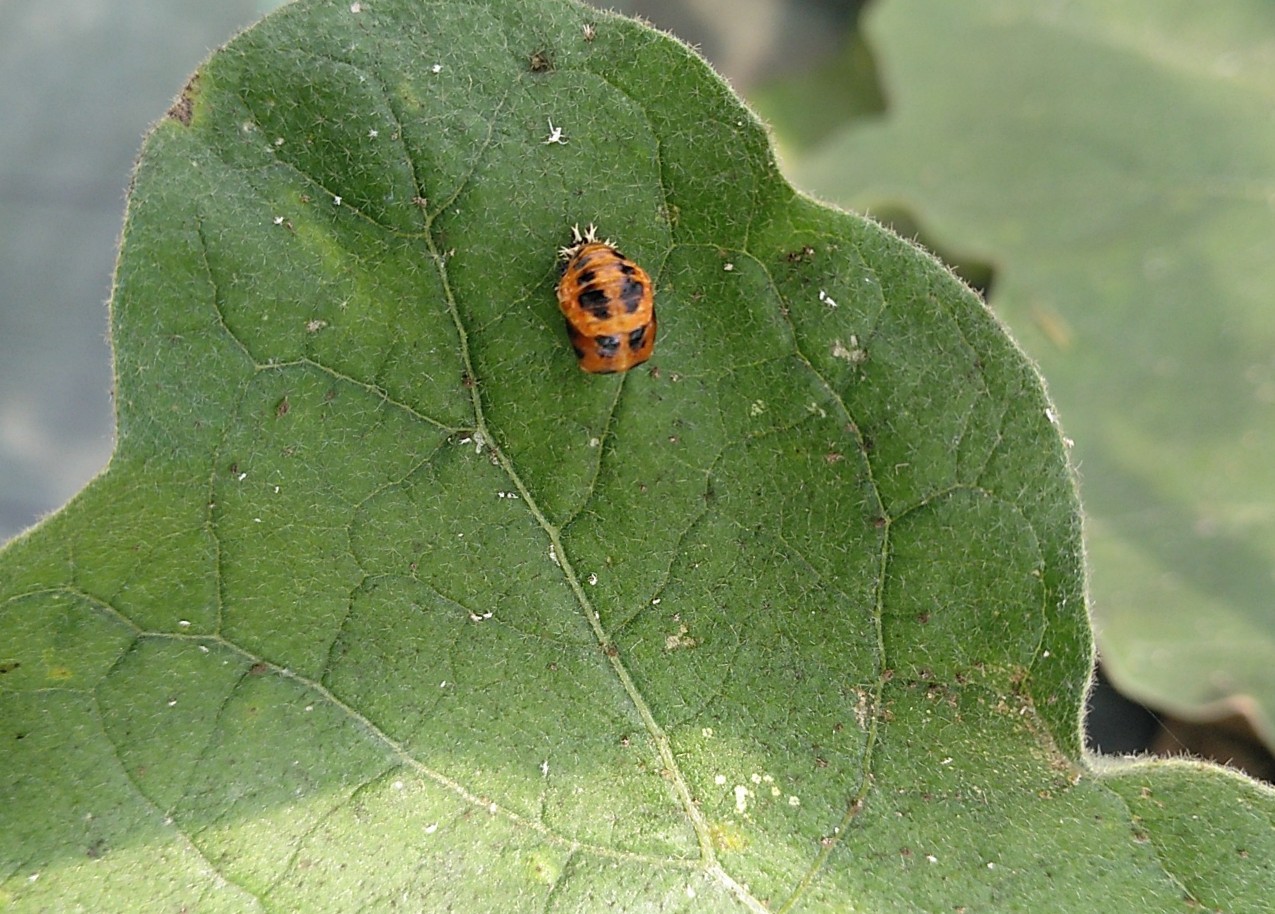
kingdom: Animalia
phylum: Arthropoda
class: Insecta
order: Coleoptera
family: Coccinellidae
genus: Harmonia
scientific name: Harmonia axyridis
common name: Harlequin ladybird
